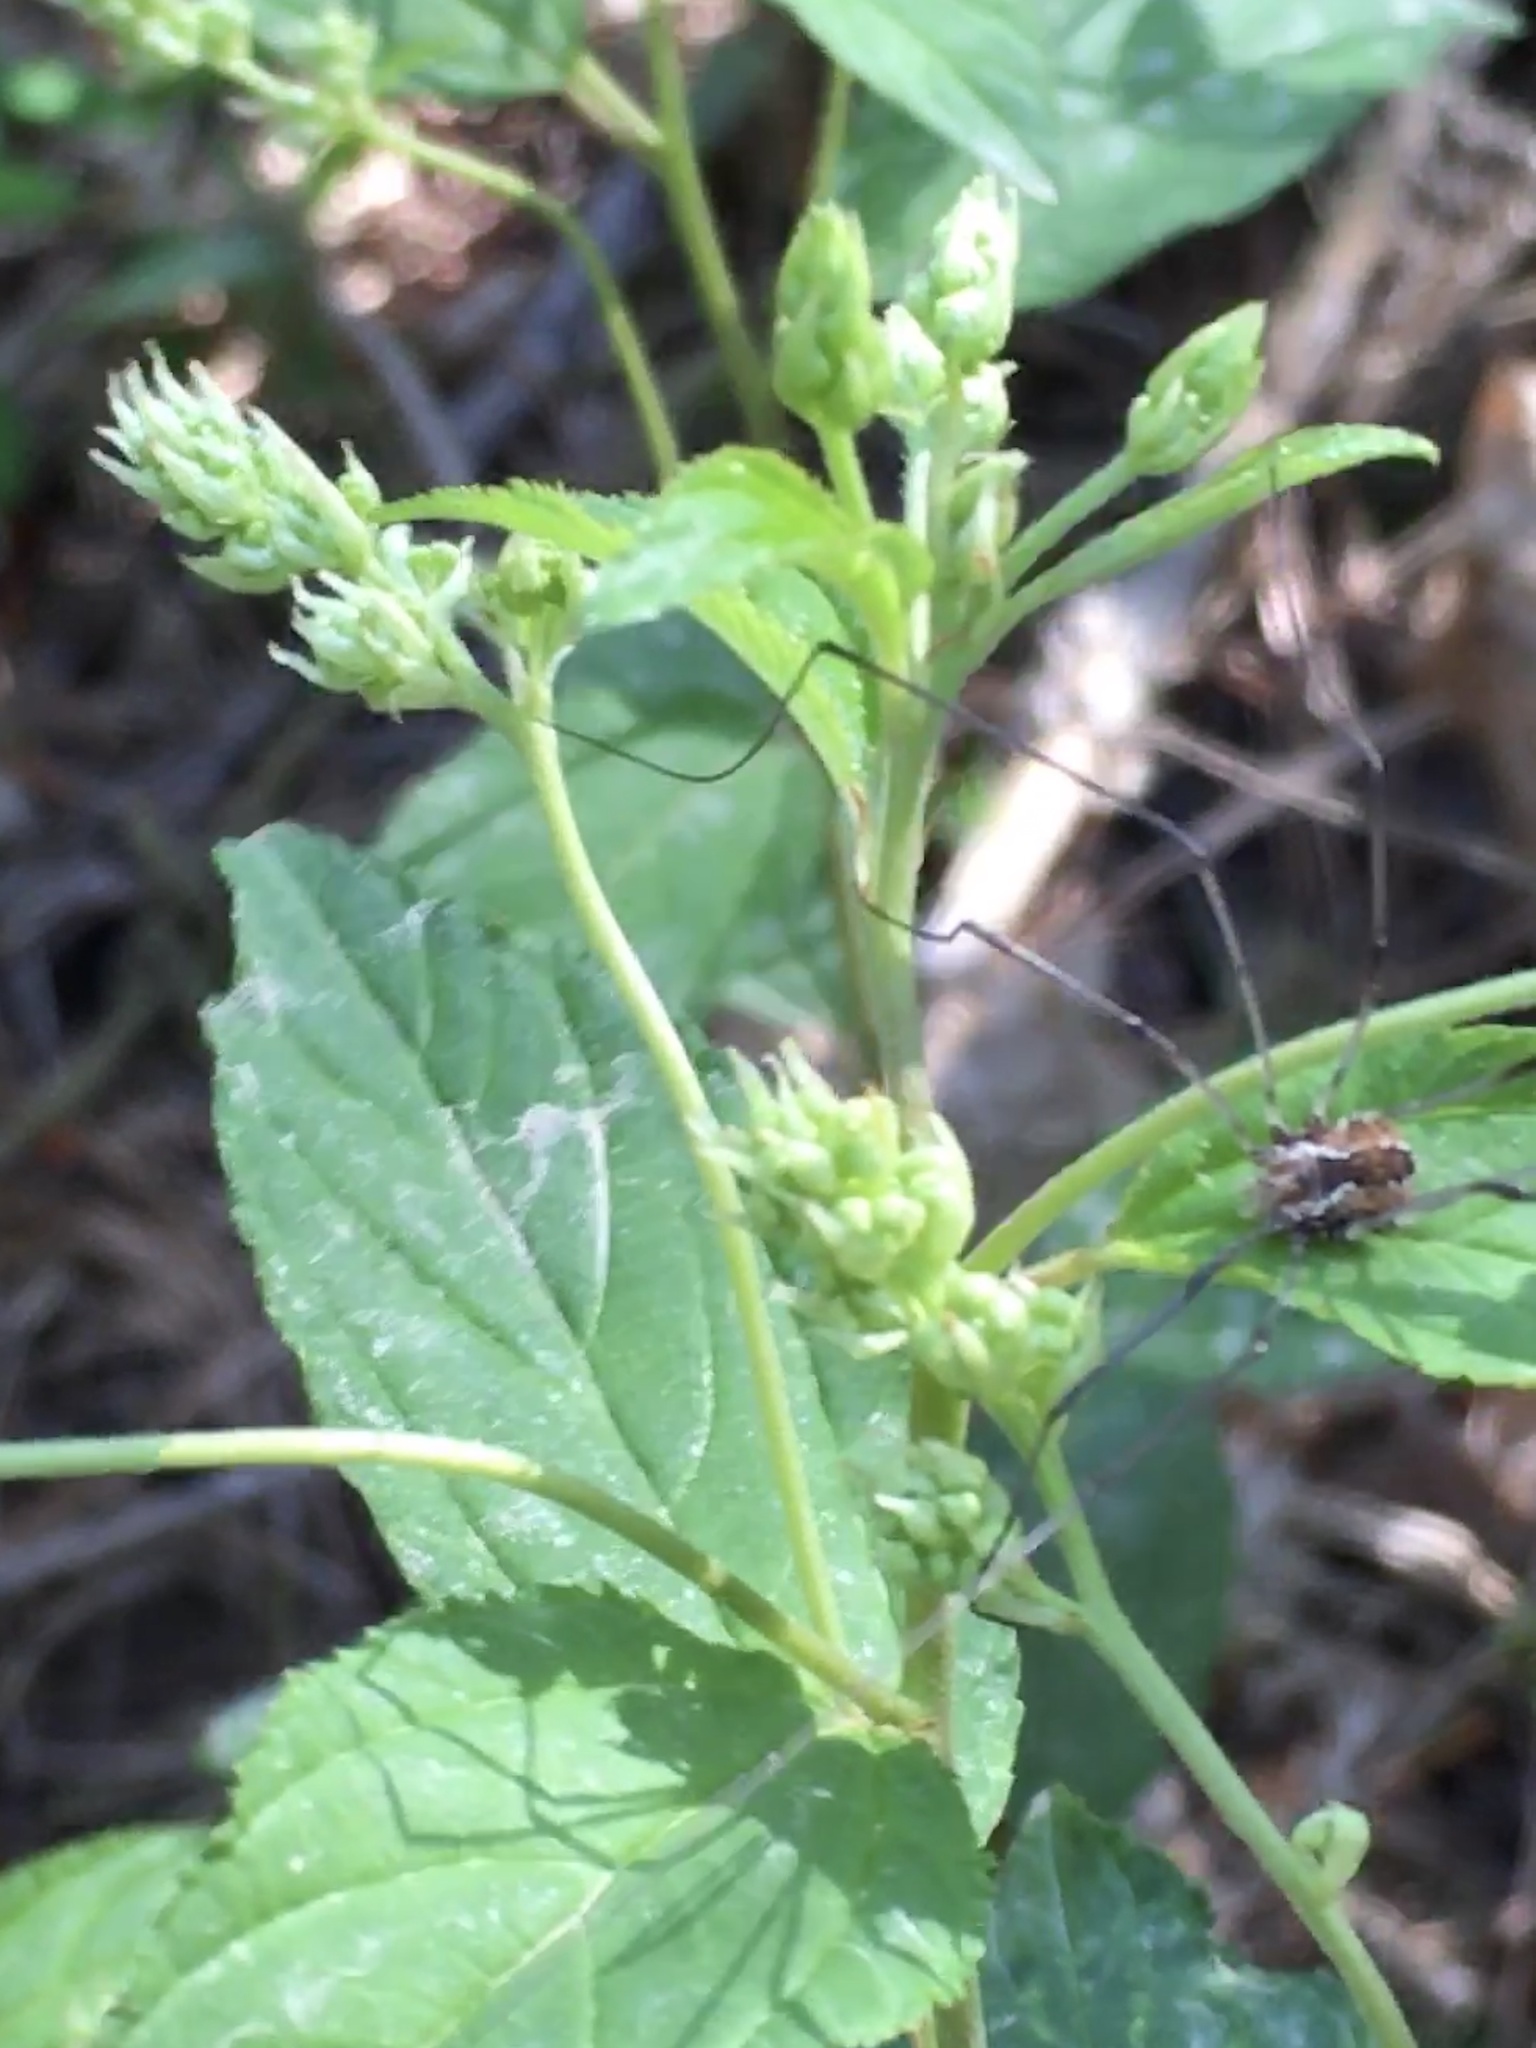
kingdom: Plantae
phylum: Tracheophyta
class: Magnoliopsida
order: Rosales
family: Rhamnaceae
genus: Ceanothus
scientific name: Ceanothus americanus
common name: Redroot
